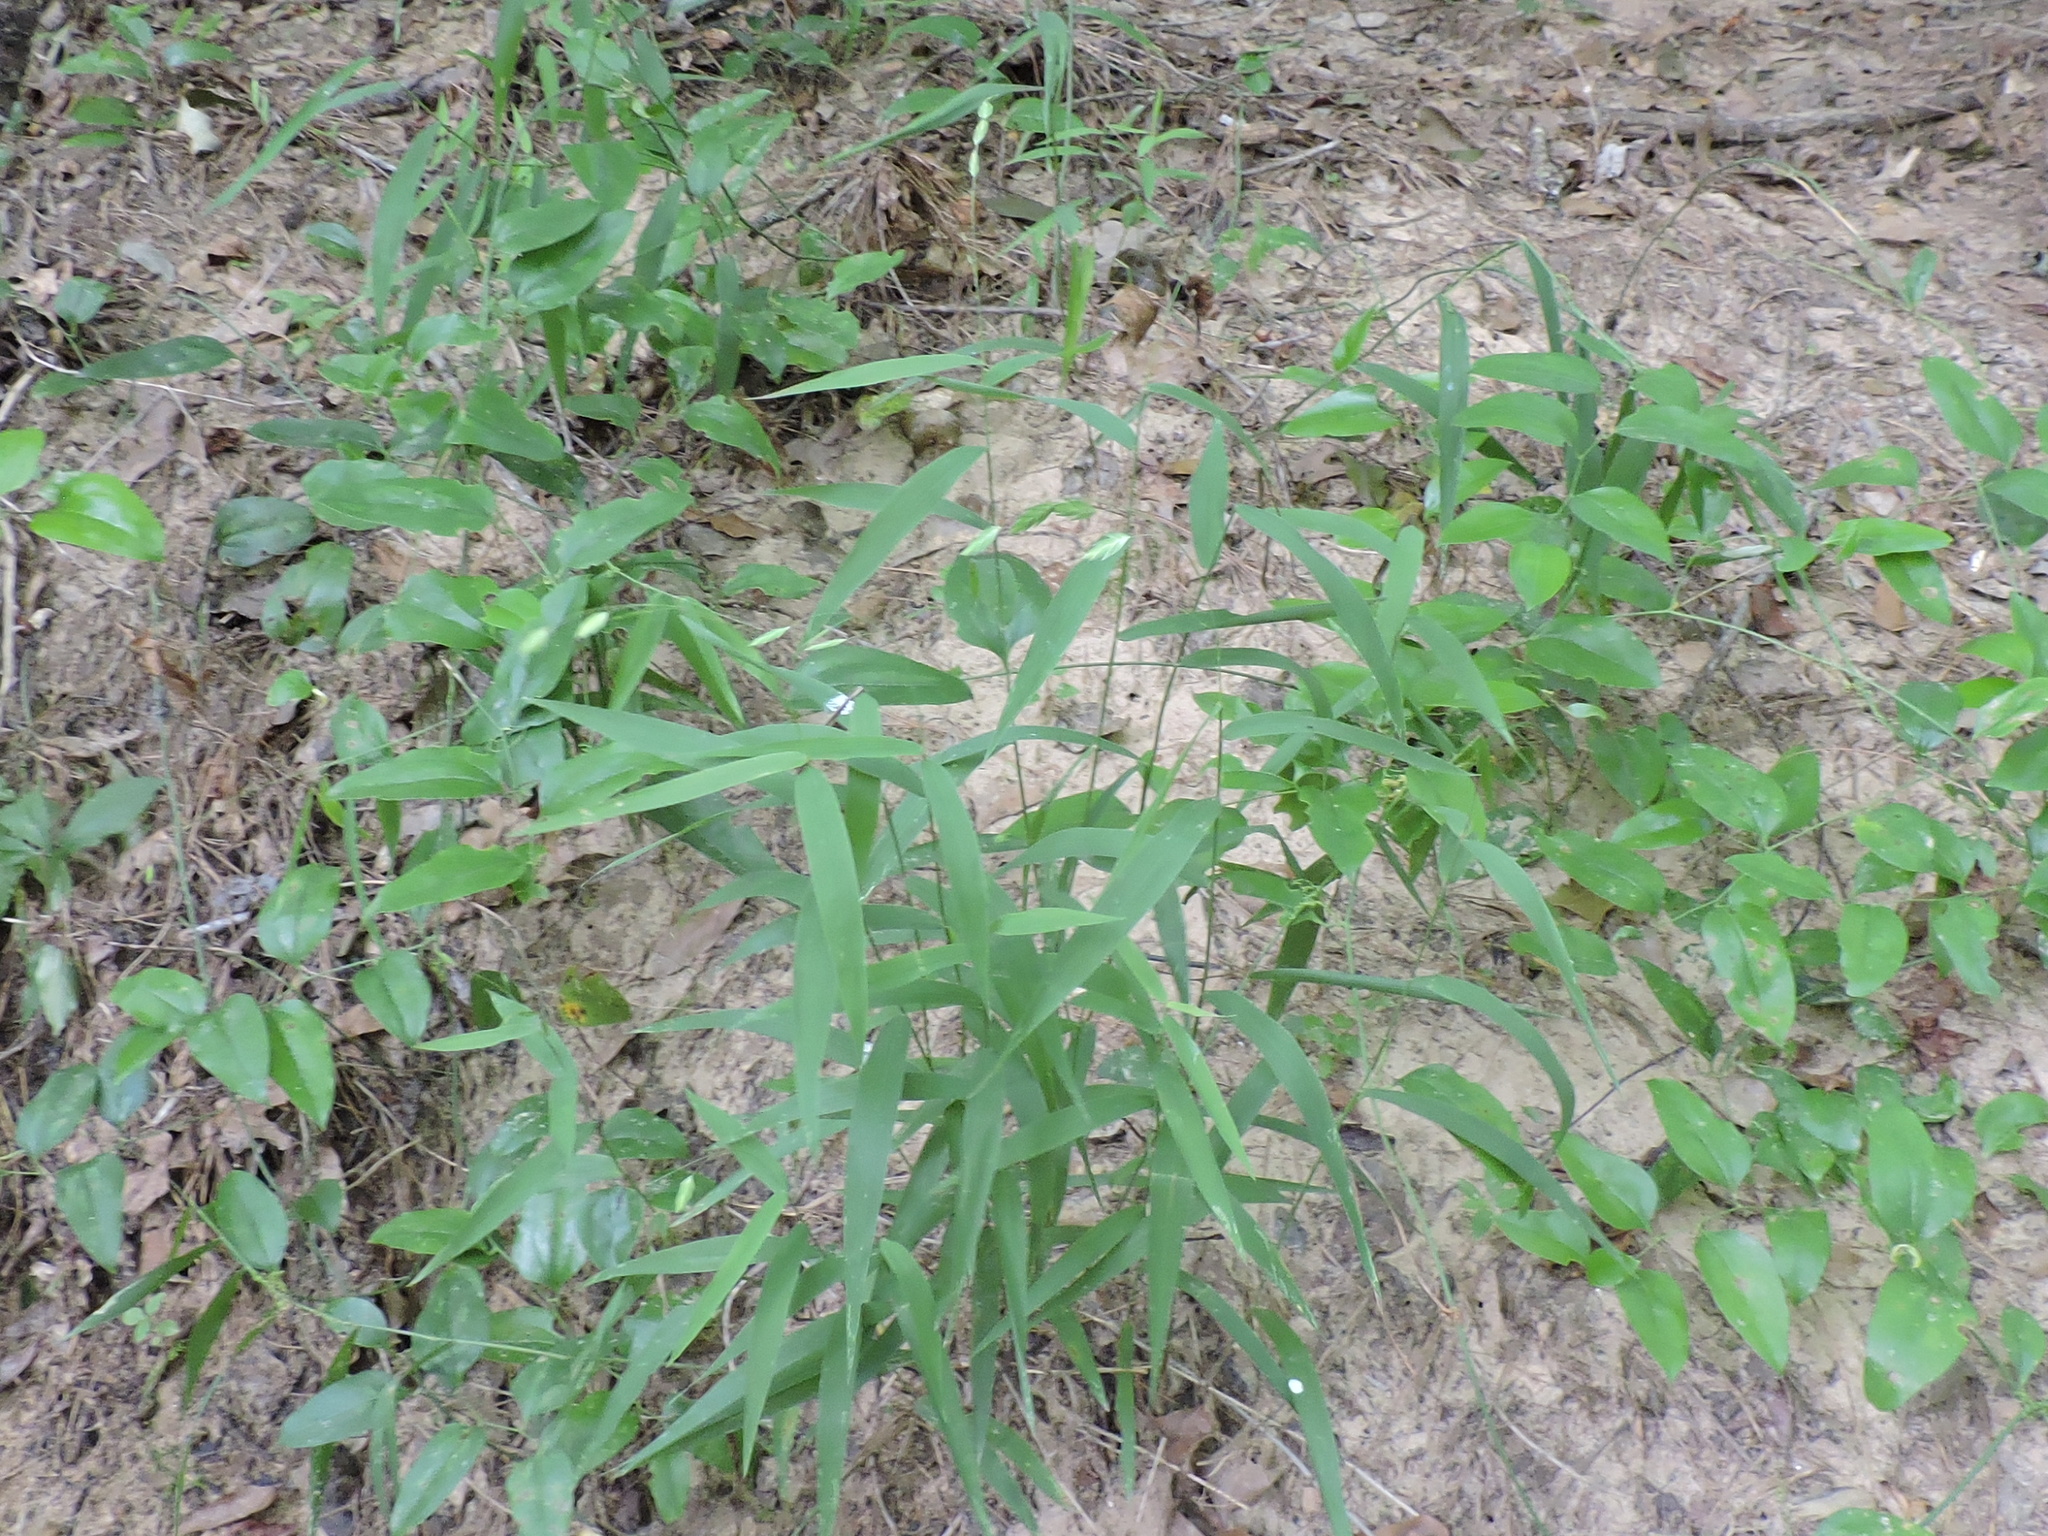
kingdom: Plantae
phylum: Tracheophyta
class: Liliopsida
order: Poales
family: Poaceae
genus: Chasmanthium
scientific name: Chasmanthium latifolium
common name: Broad-leaved chasmanthium
